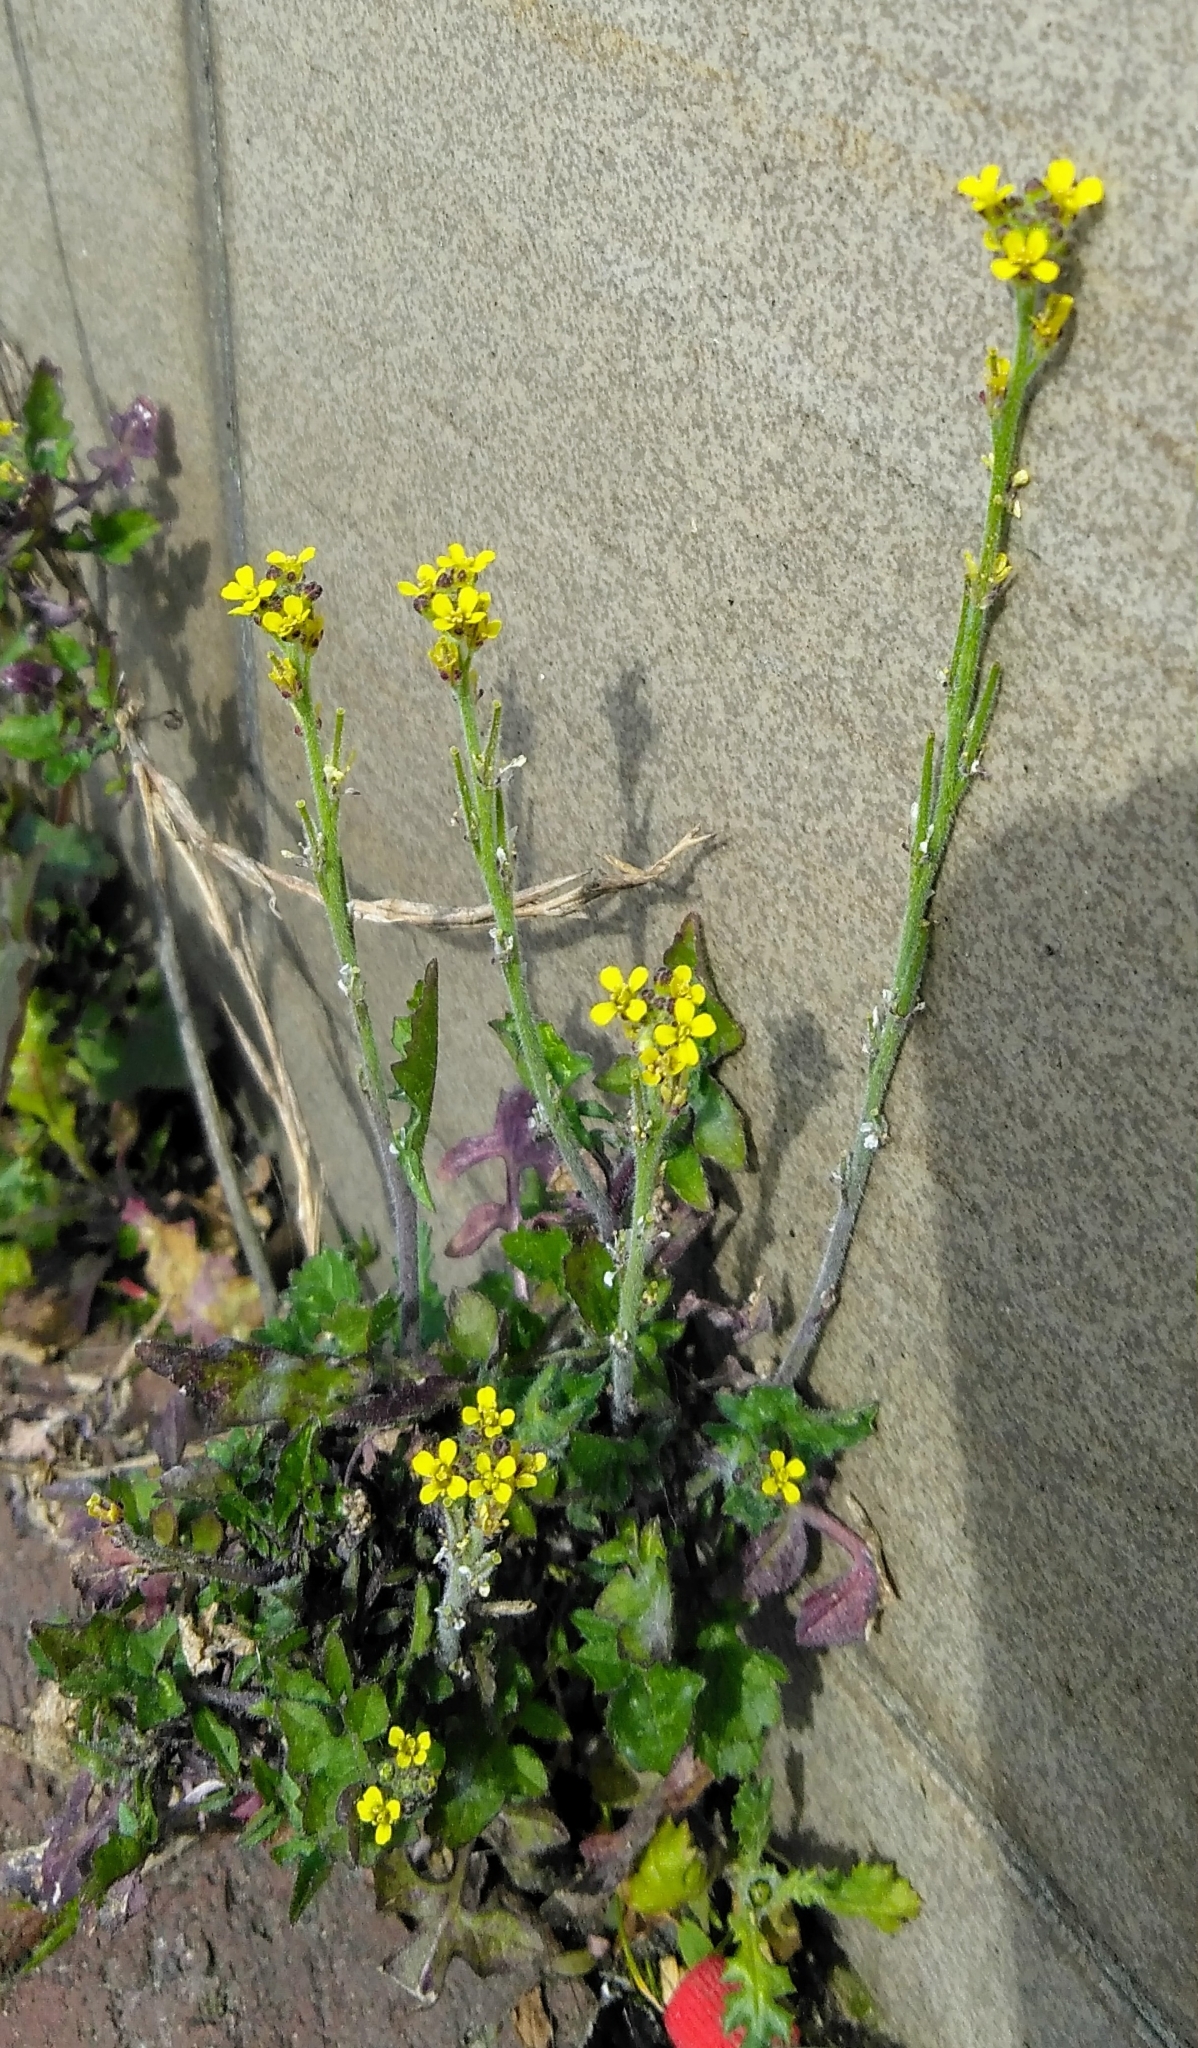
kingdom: Plantae
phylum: Tracheophyta
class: Magnoliopsida
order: Brassicales
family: Brassicaceae
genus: Sisymbrium
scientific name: Sisymbrium officinale
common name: Hedge mustard
